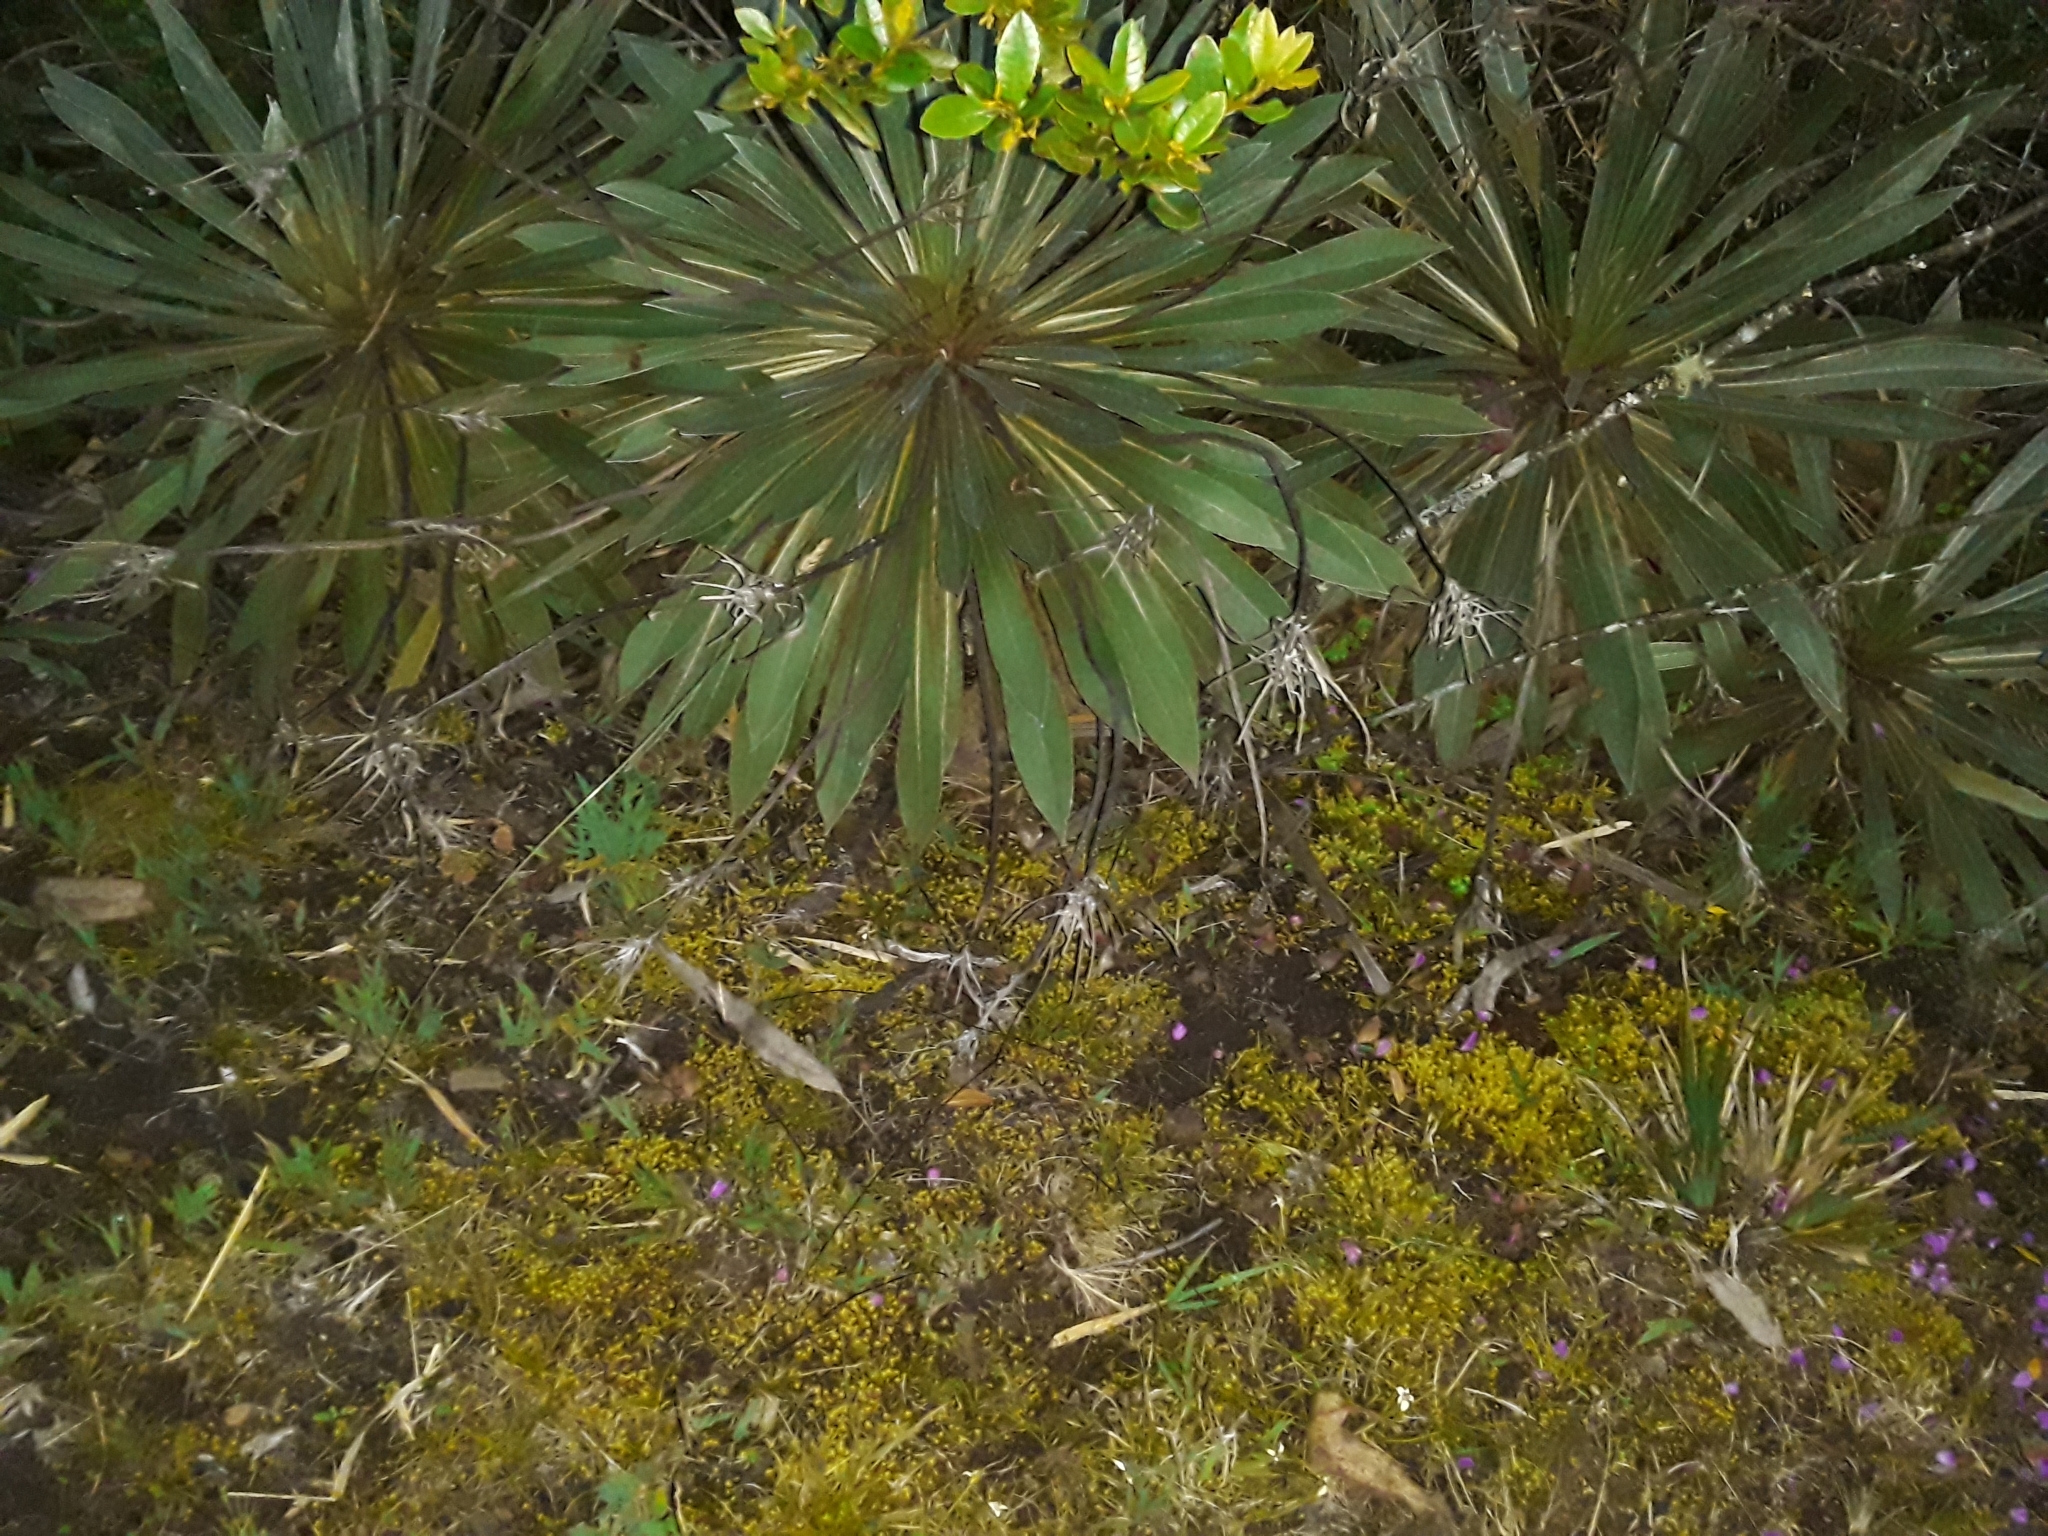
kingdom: Plantae
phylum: Tracheophyta
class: Magnoliopsida
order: Asterales
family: Asteraceae
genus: Espeletia
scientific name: Espeletia corymbosa
